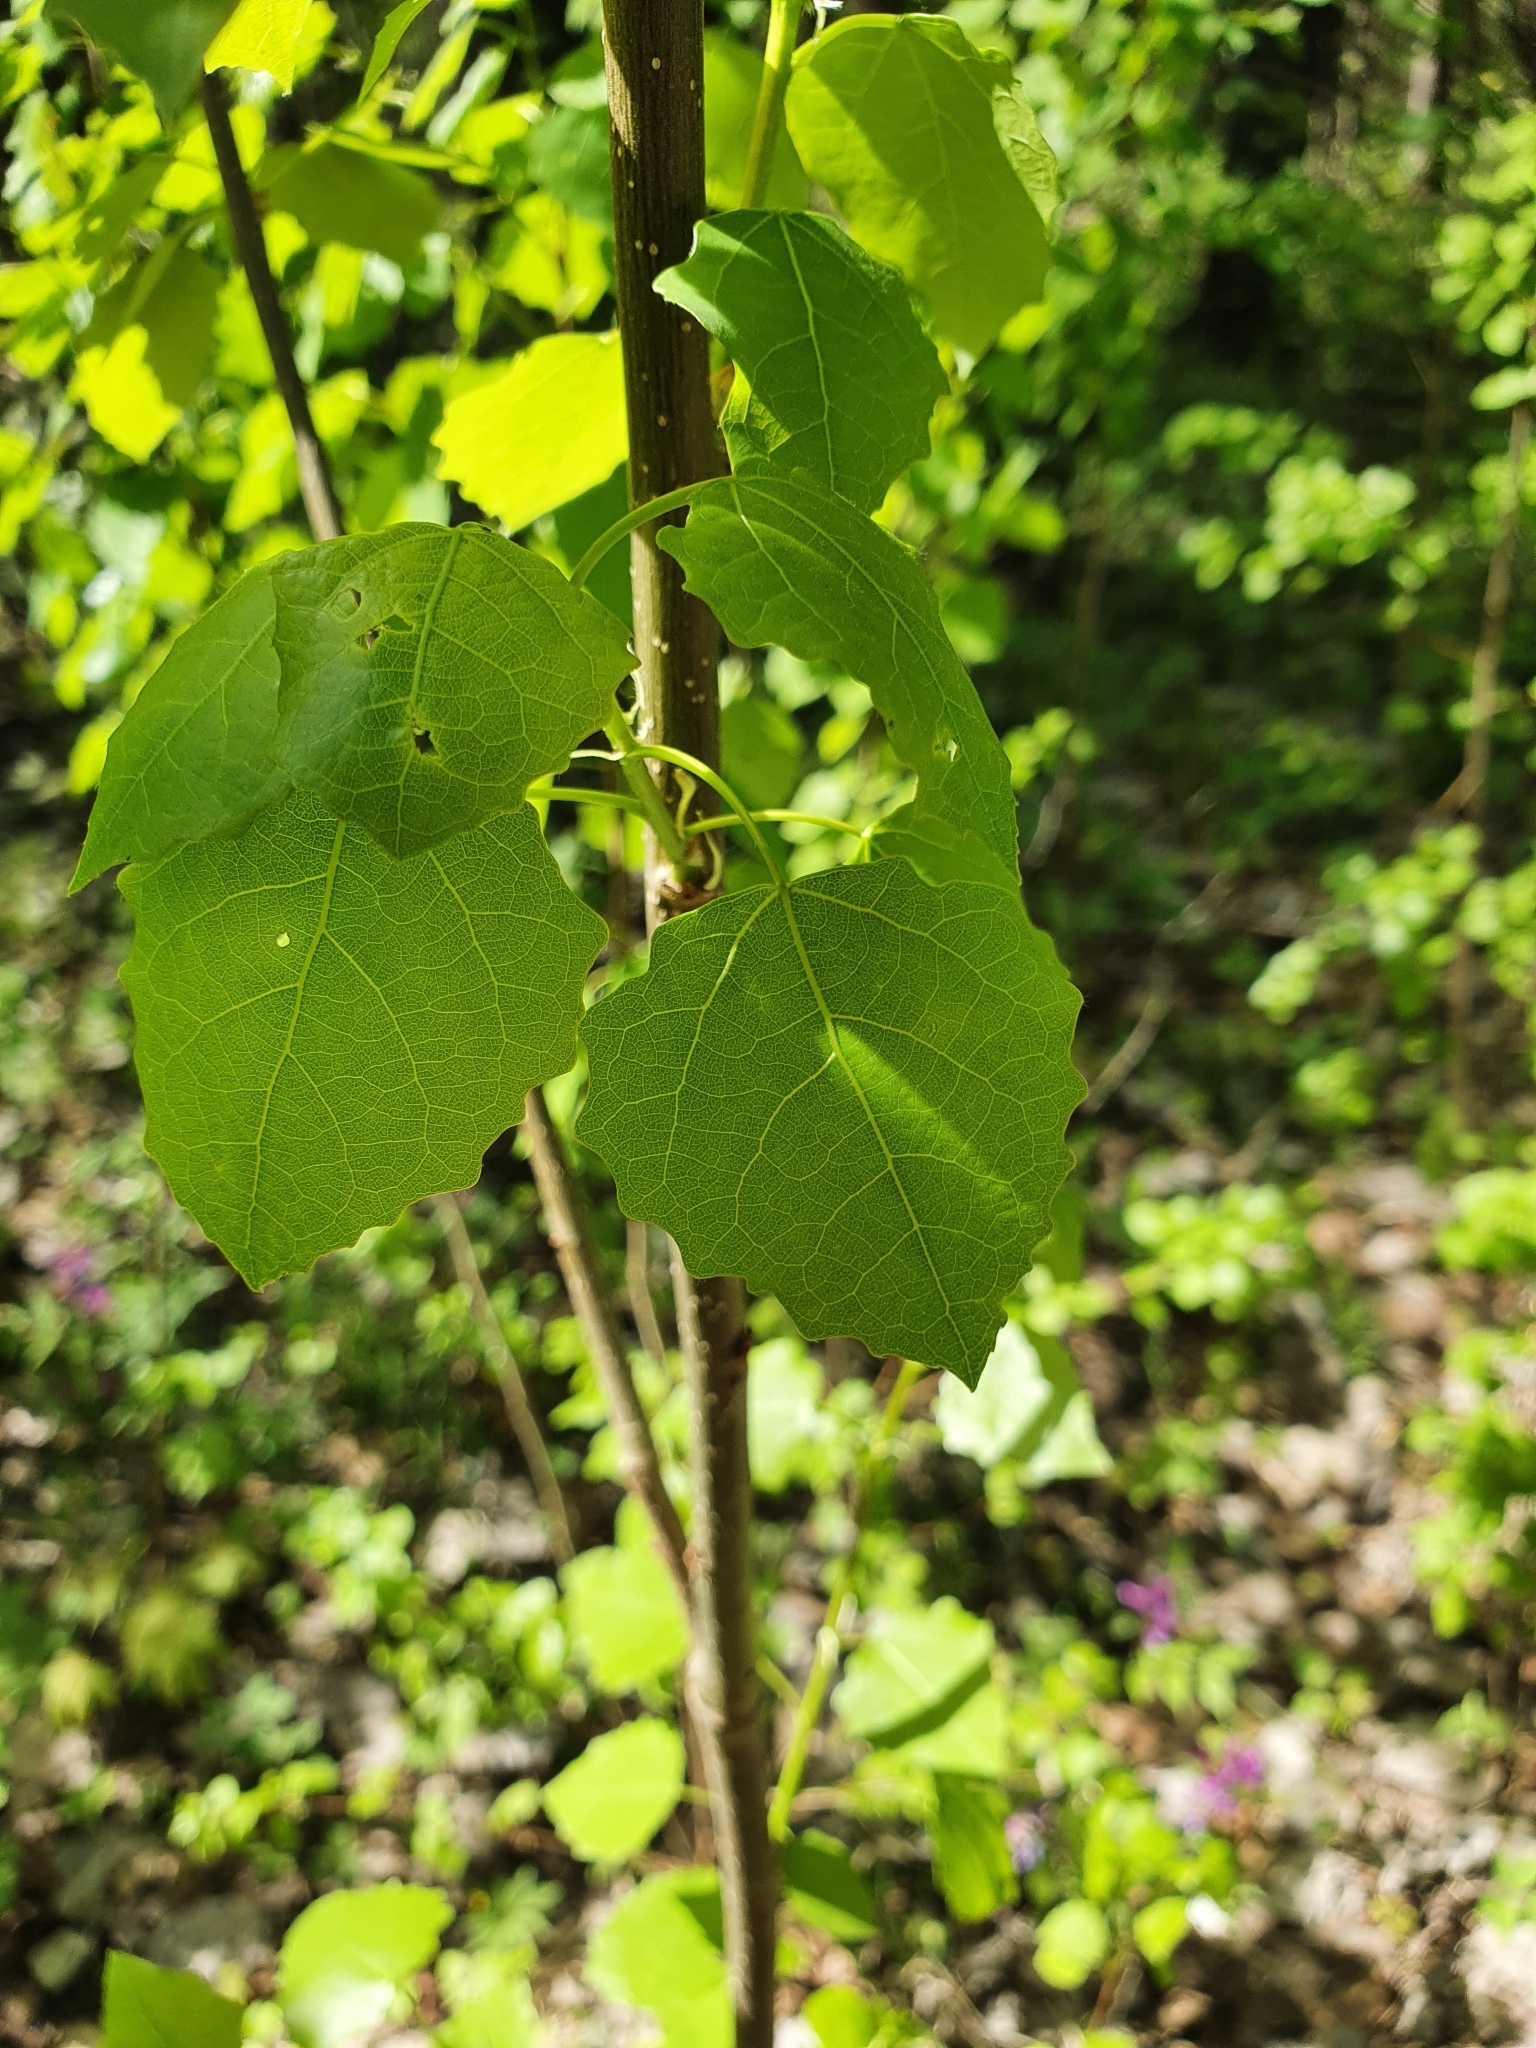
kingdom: Plantae
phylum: Tracheophyta
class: Magnoliopsida
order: Malpighiales
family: Salicaceae
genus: Populus
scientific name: Populus tremula
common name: European aspen
